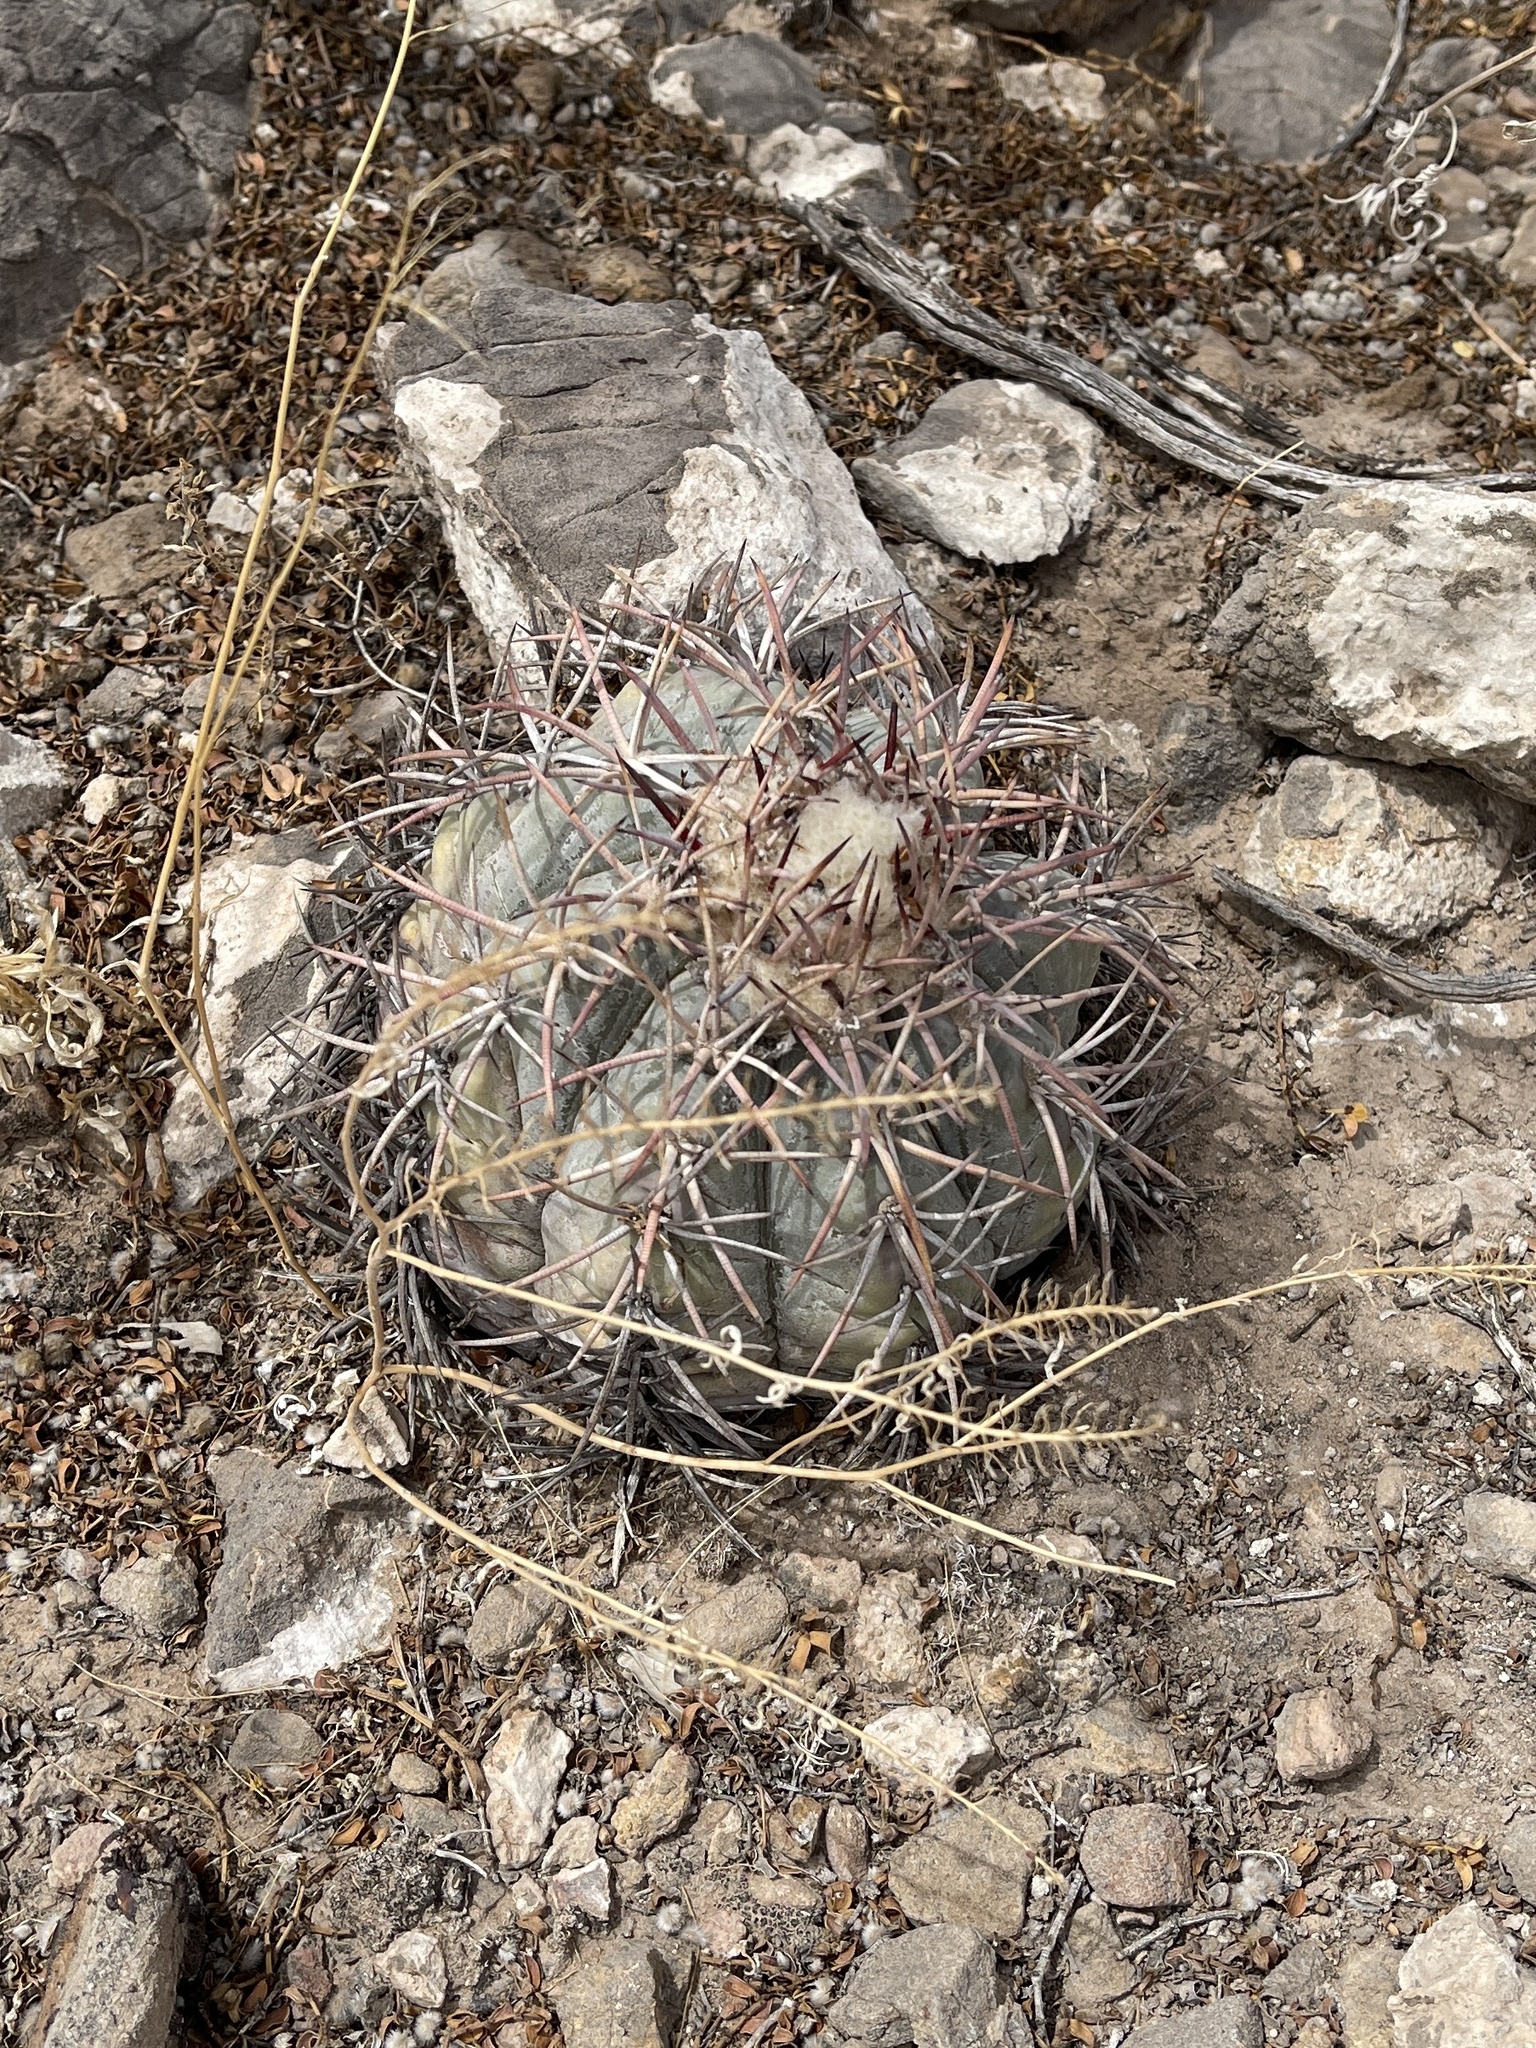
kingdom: Plantae
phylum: Tracheophyta
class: Magnoliopsida
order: Caryophyllales
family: Cactaceae
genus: Echinocactus
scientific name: Echinocactus horizonthalonius
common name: Devilshead
